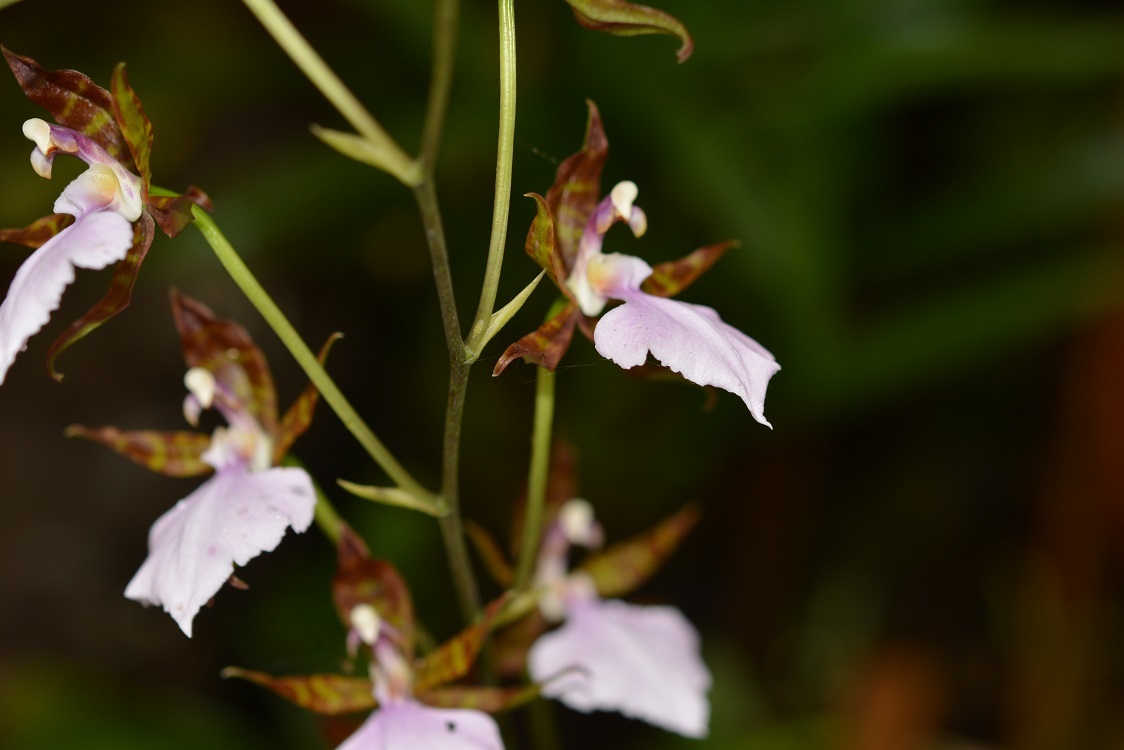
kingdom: Plantae
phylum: Tracheophyta
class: Liliopsida
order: Asparagales
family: Orchidaceae
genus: Rhynchostele
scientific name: Rhynchostele bictoniensis
